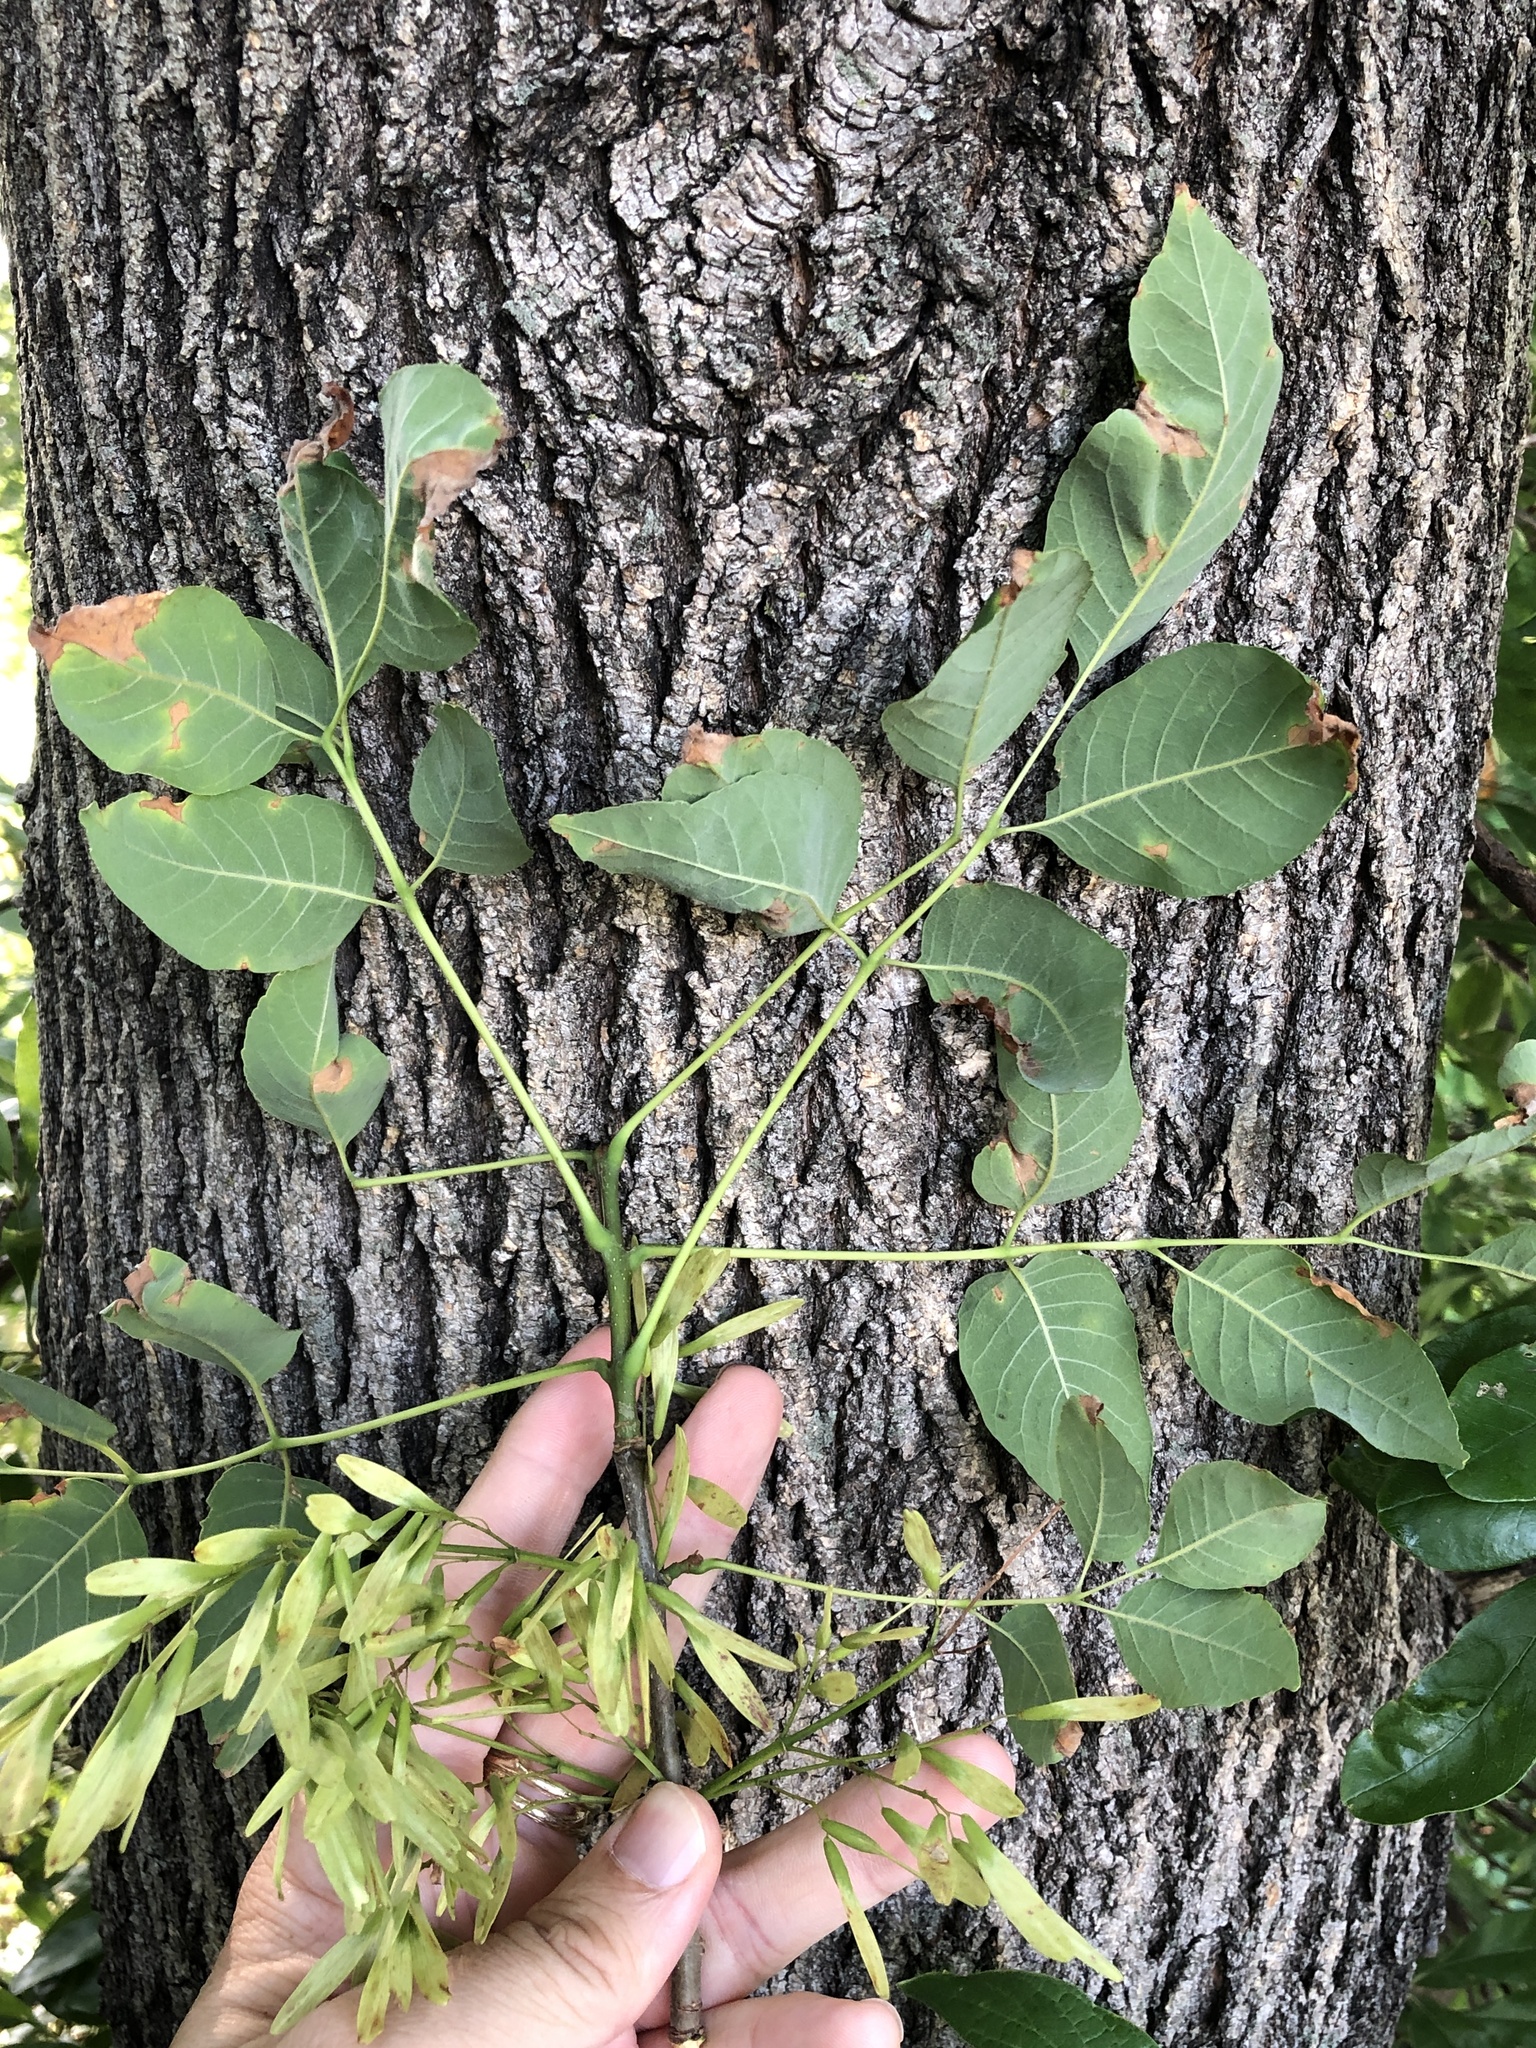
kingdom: Plantae
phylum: Tracheophyta
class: Magnoliopsida
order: Lamiales
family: Oleaceae
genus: Fraxinus
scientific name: Fraxinus pennsylvanica
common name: Green ash
